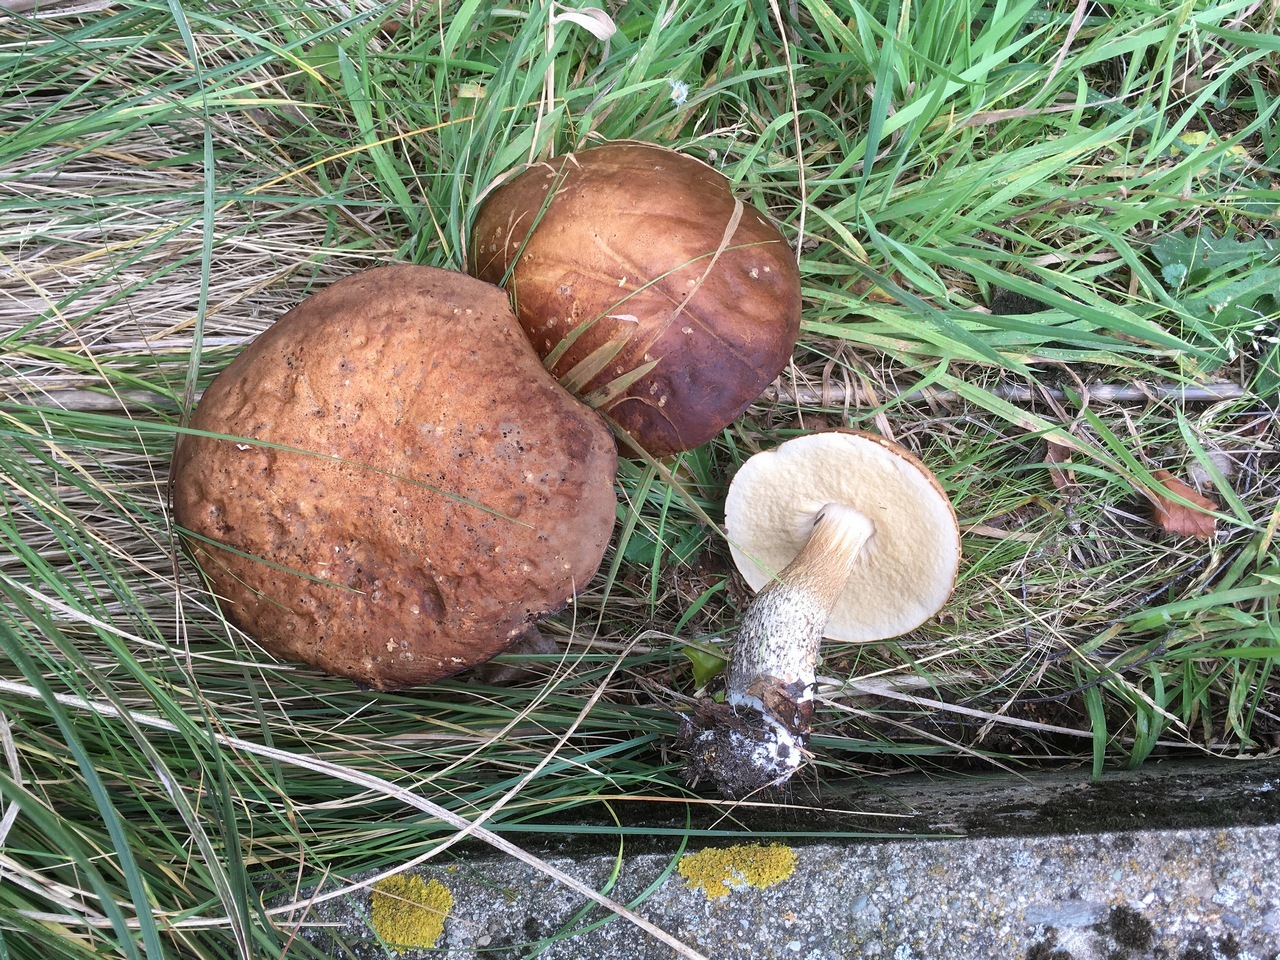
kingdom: Fungi
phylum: Basidiomycota
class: Agaricomycetes
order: Boletales
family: Boletaceae
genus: Leccinum
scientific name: Leccinum scabrum
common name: Blushing bolete
